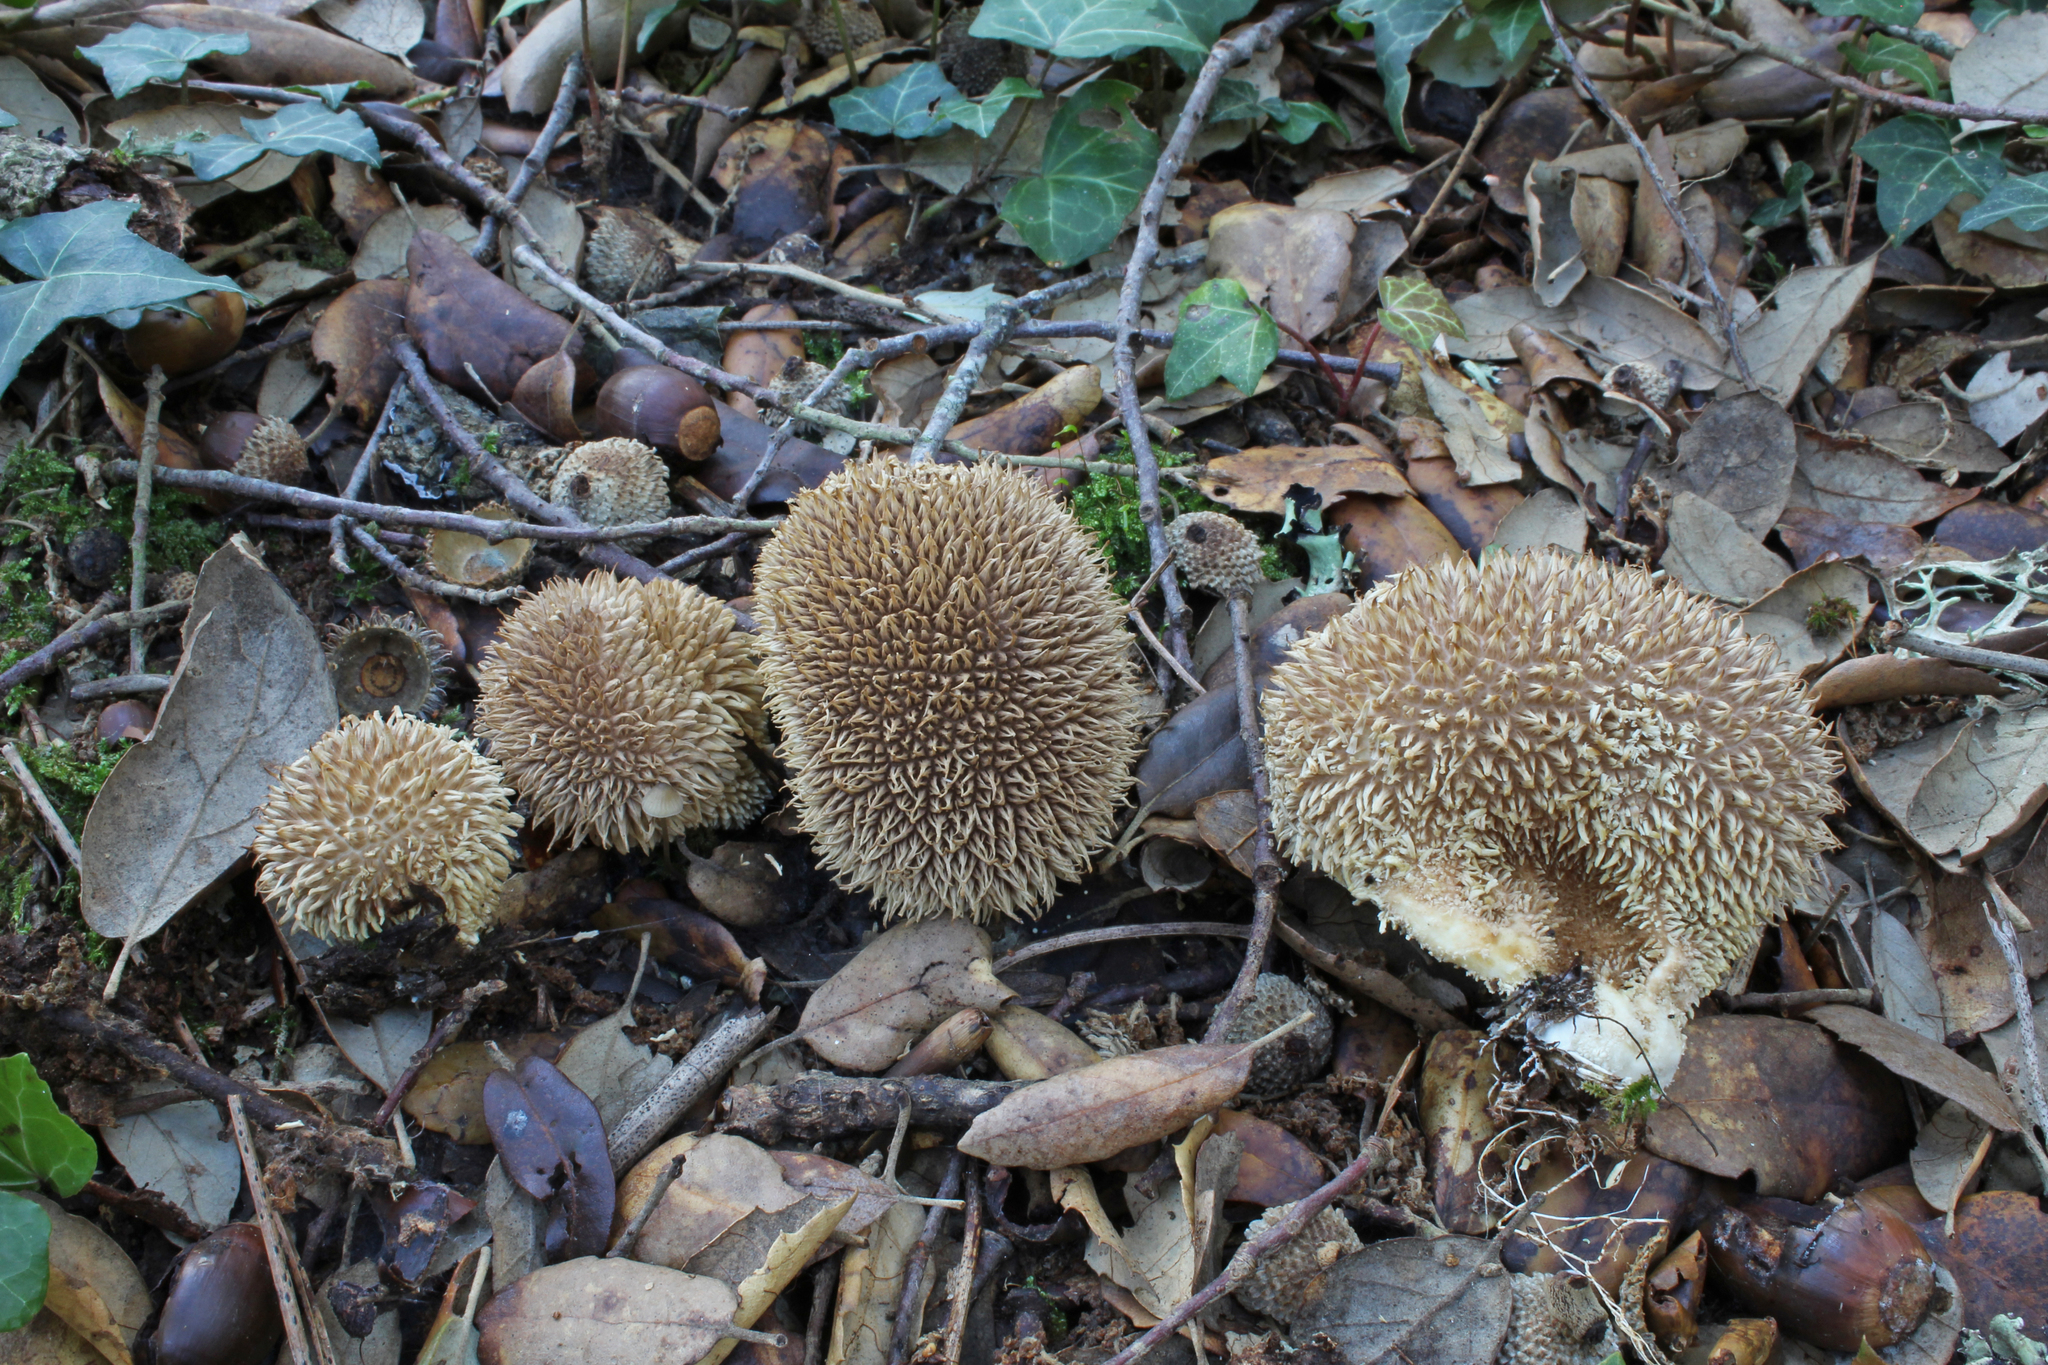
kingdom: Fungi
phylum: Basidiomycota
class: Agaricomycetes
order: Agaricales
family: Lycoperdaceae
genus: Lycoperdon
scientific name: Lycoperdon echinatum
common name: Hedgehog puffball
